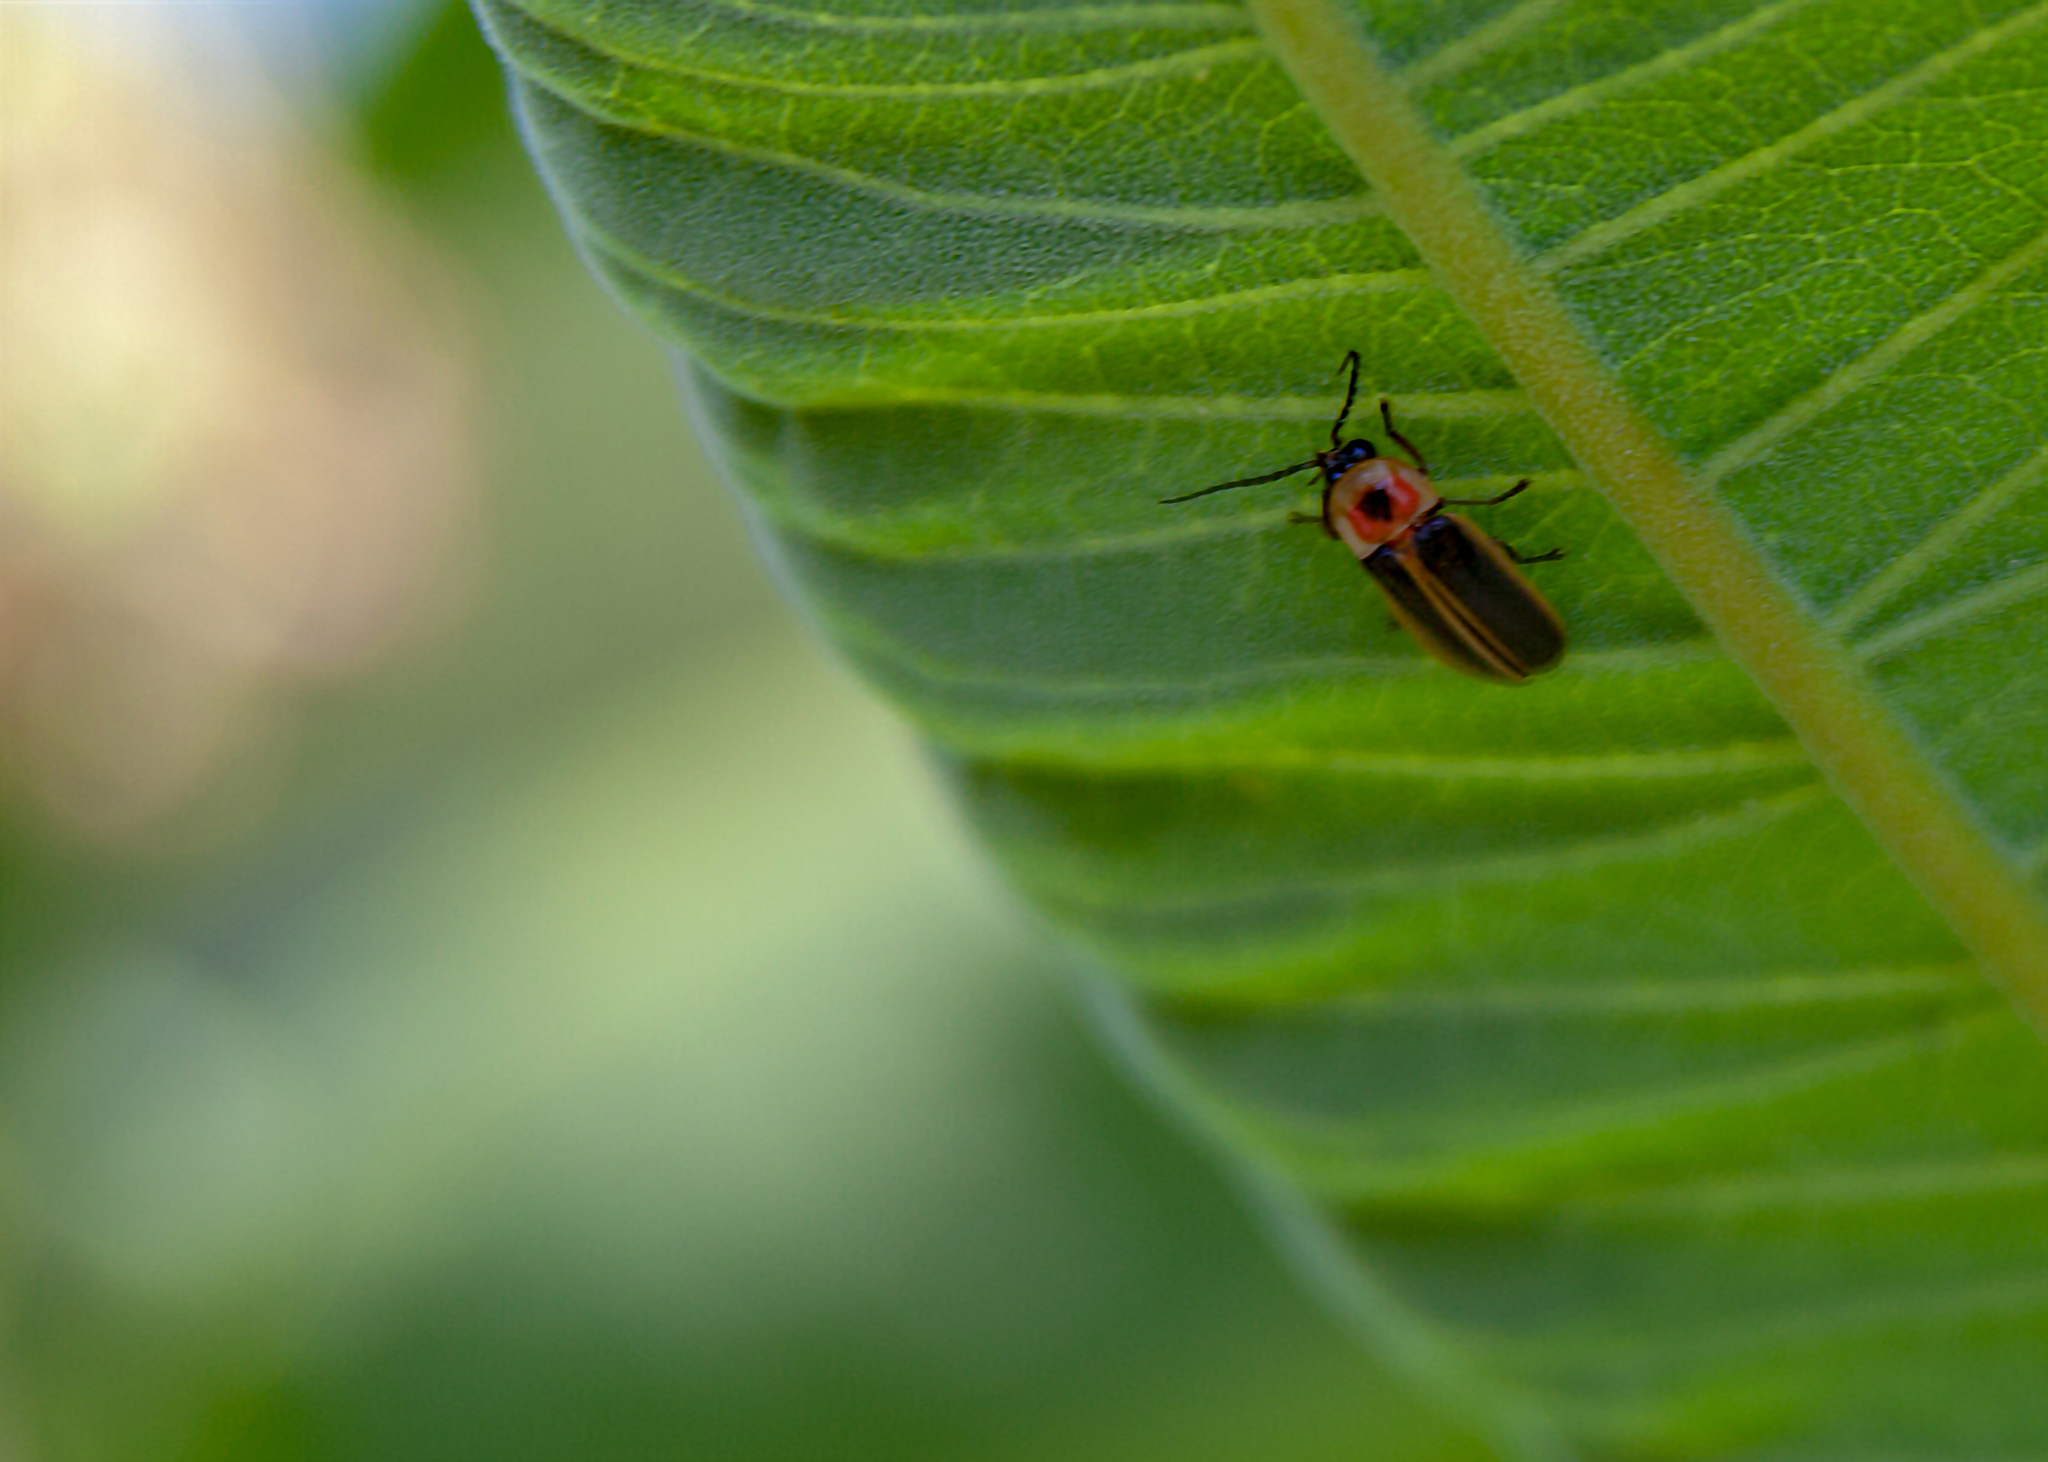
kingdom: Animalia
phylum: Arthropoda
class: Insecta
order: Coleoptera
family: Lampyridae
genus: Photinus
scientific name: Photinus pyralis
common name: Big dipper firefly
